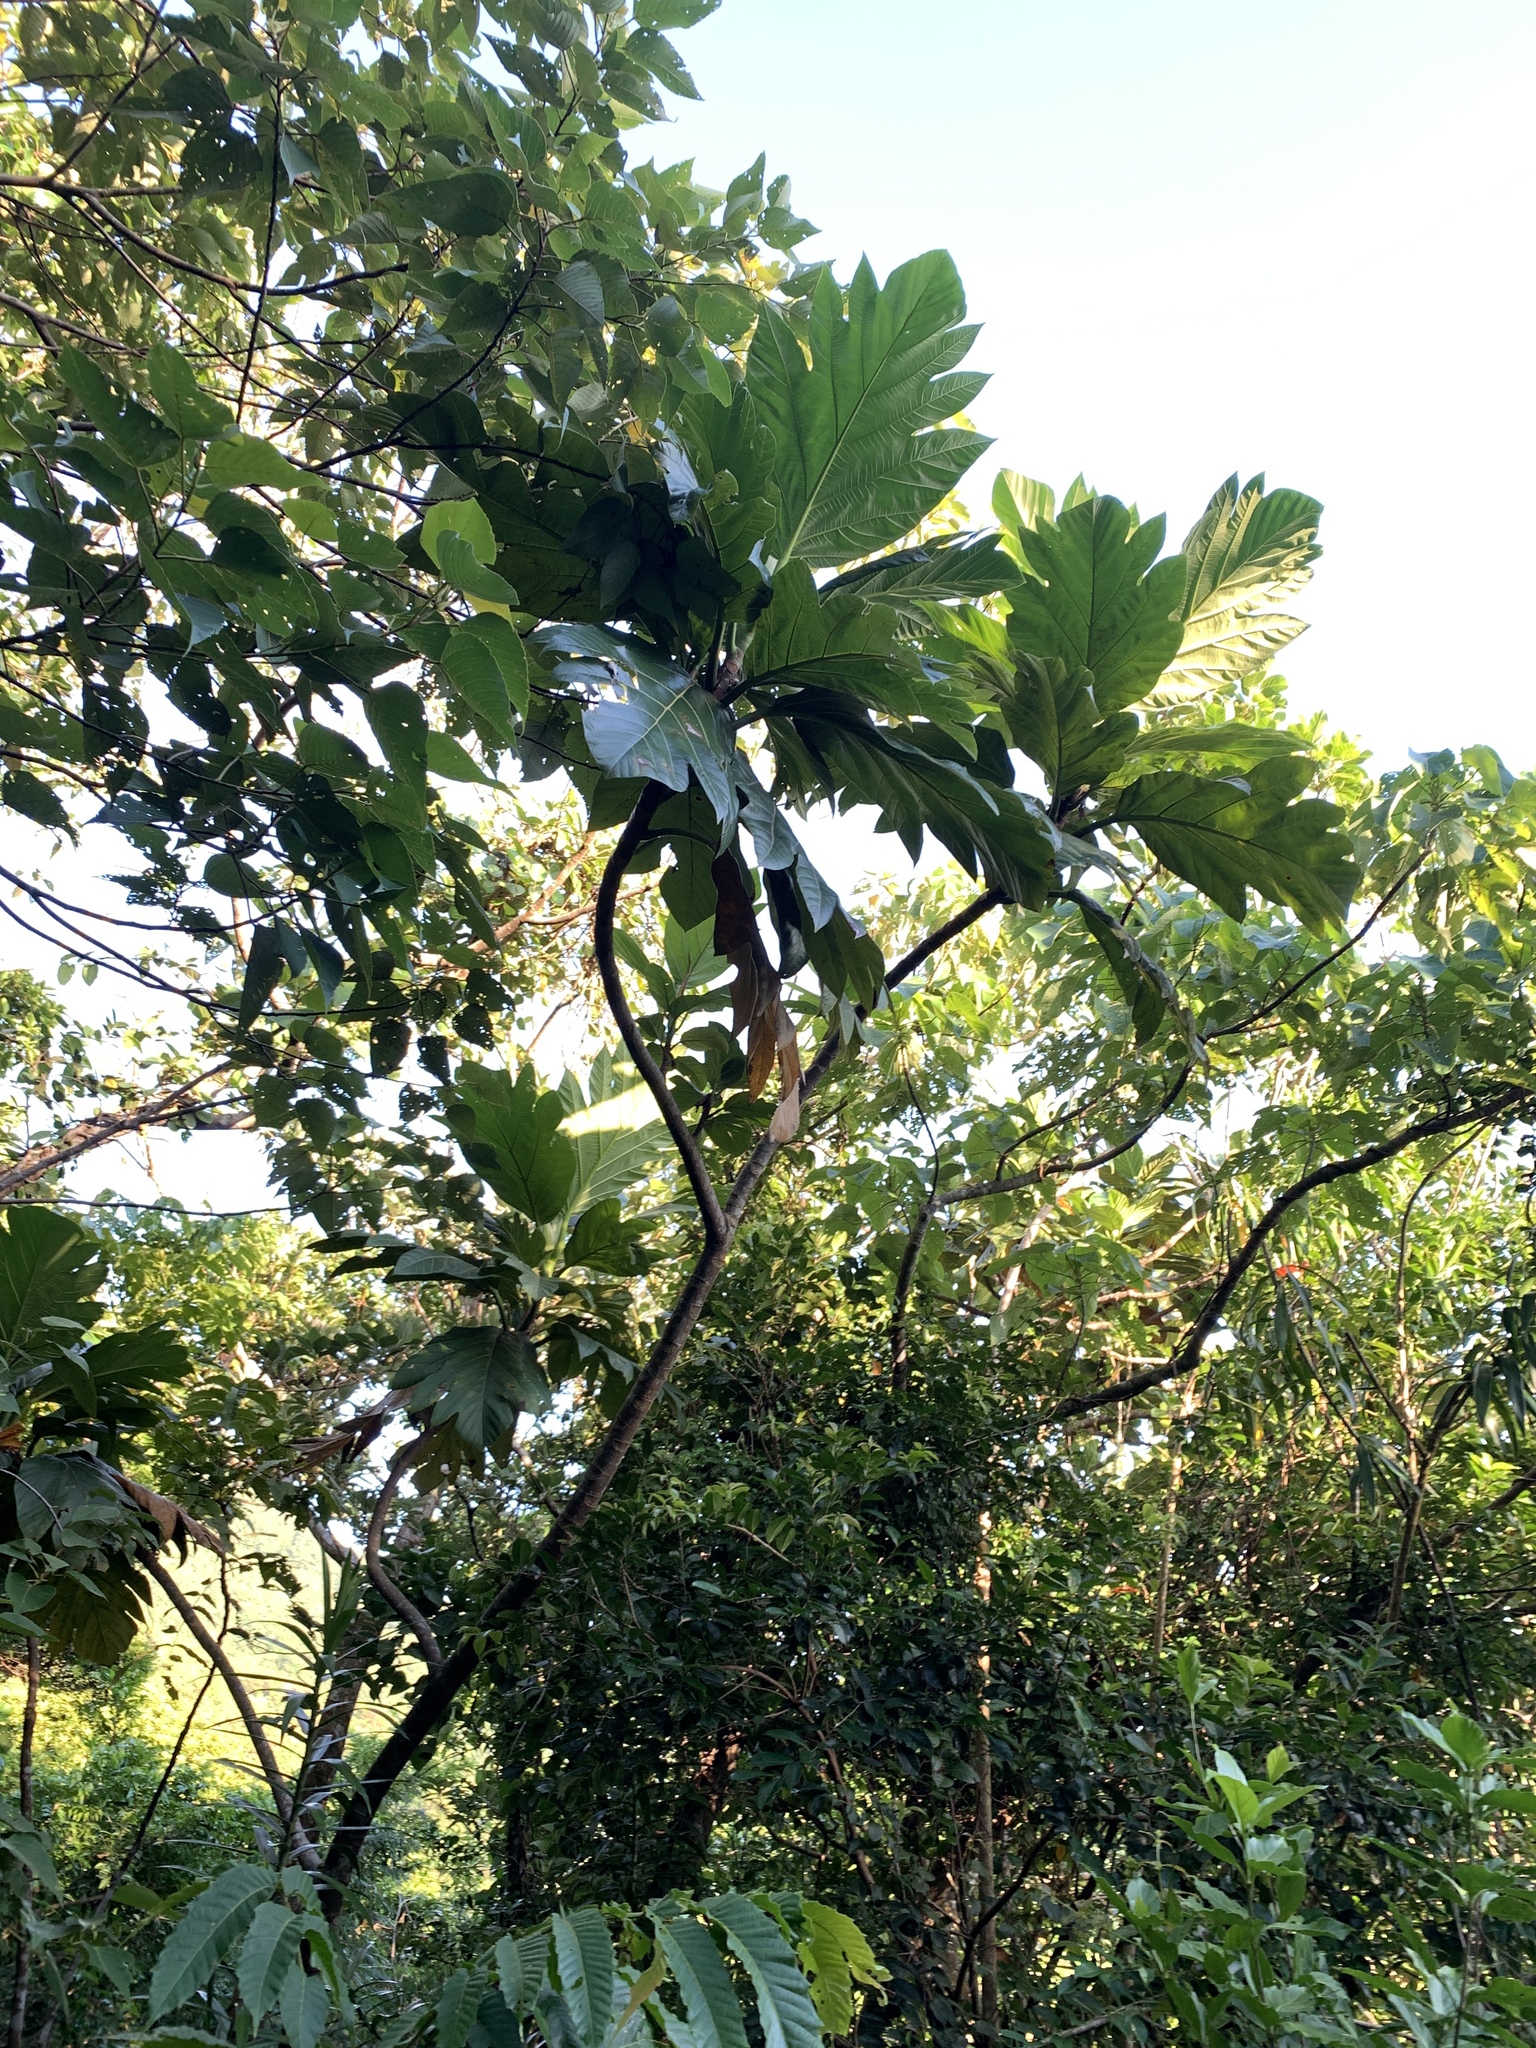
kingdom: Plantae
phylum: Tracheophyta
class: Magnoliopsida
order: Rosales
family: Moraceae
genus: Artocarpus
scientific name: Artocarpus treculianus
